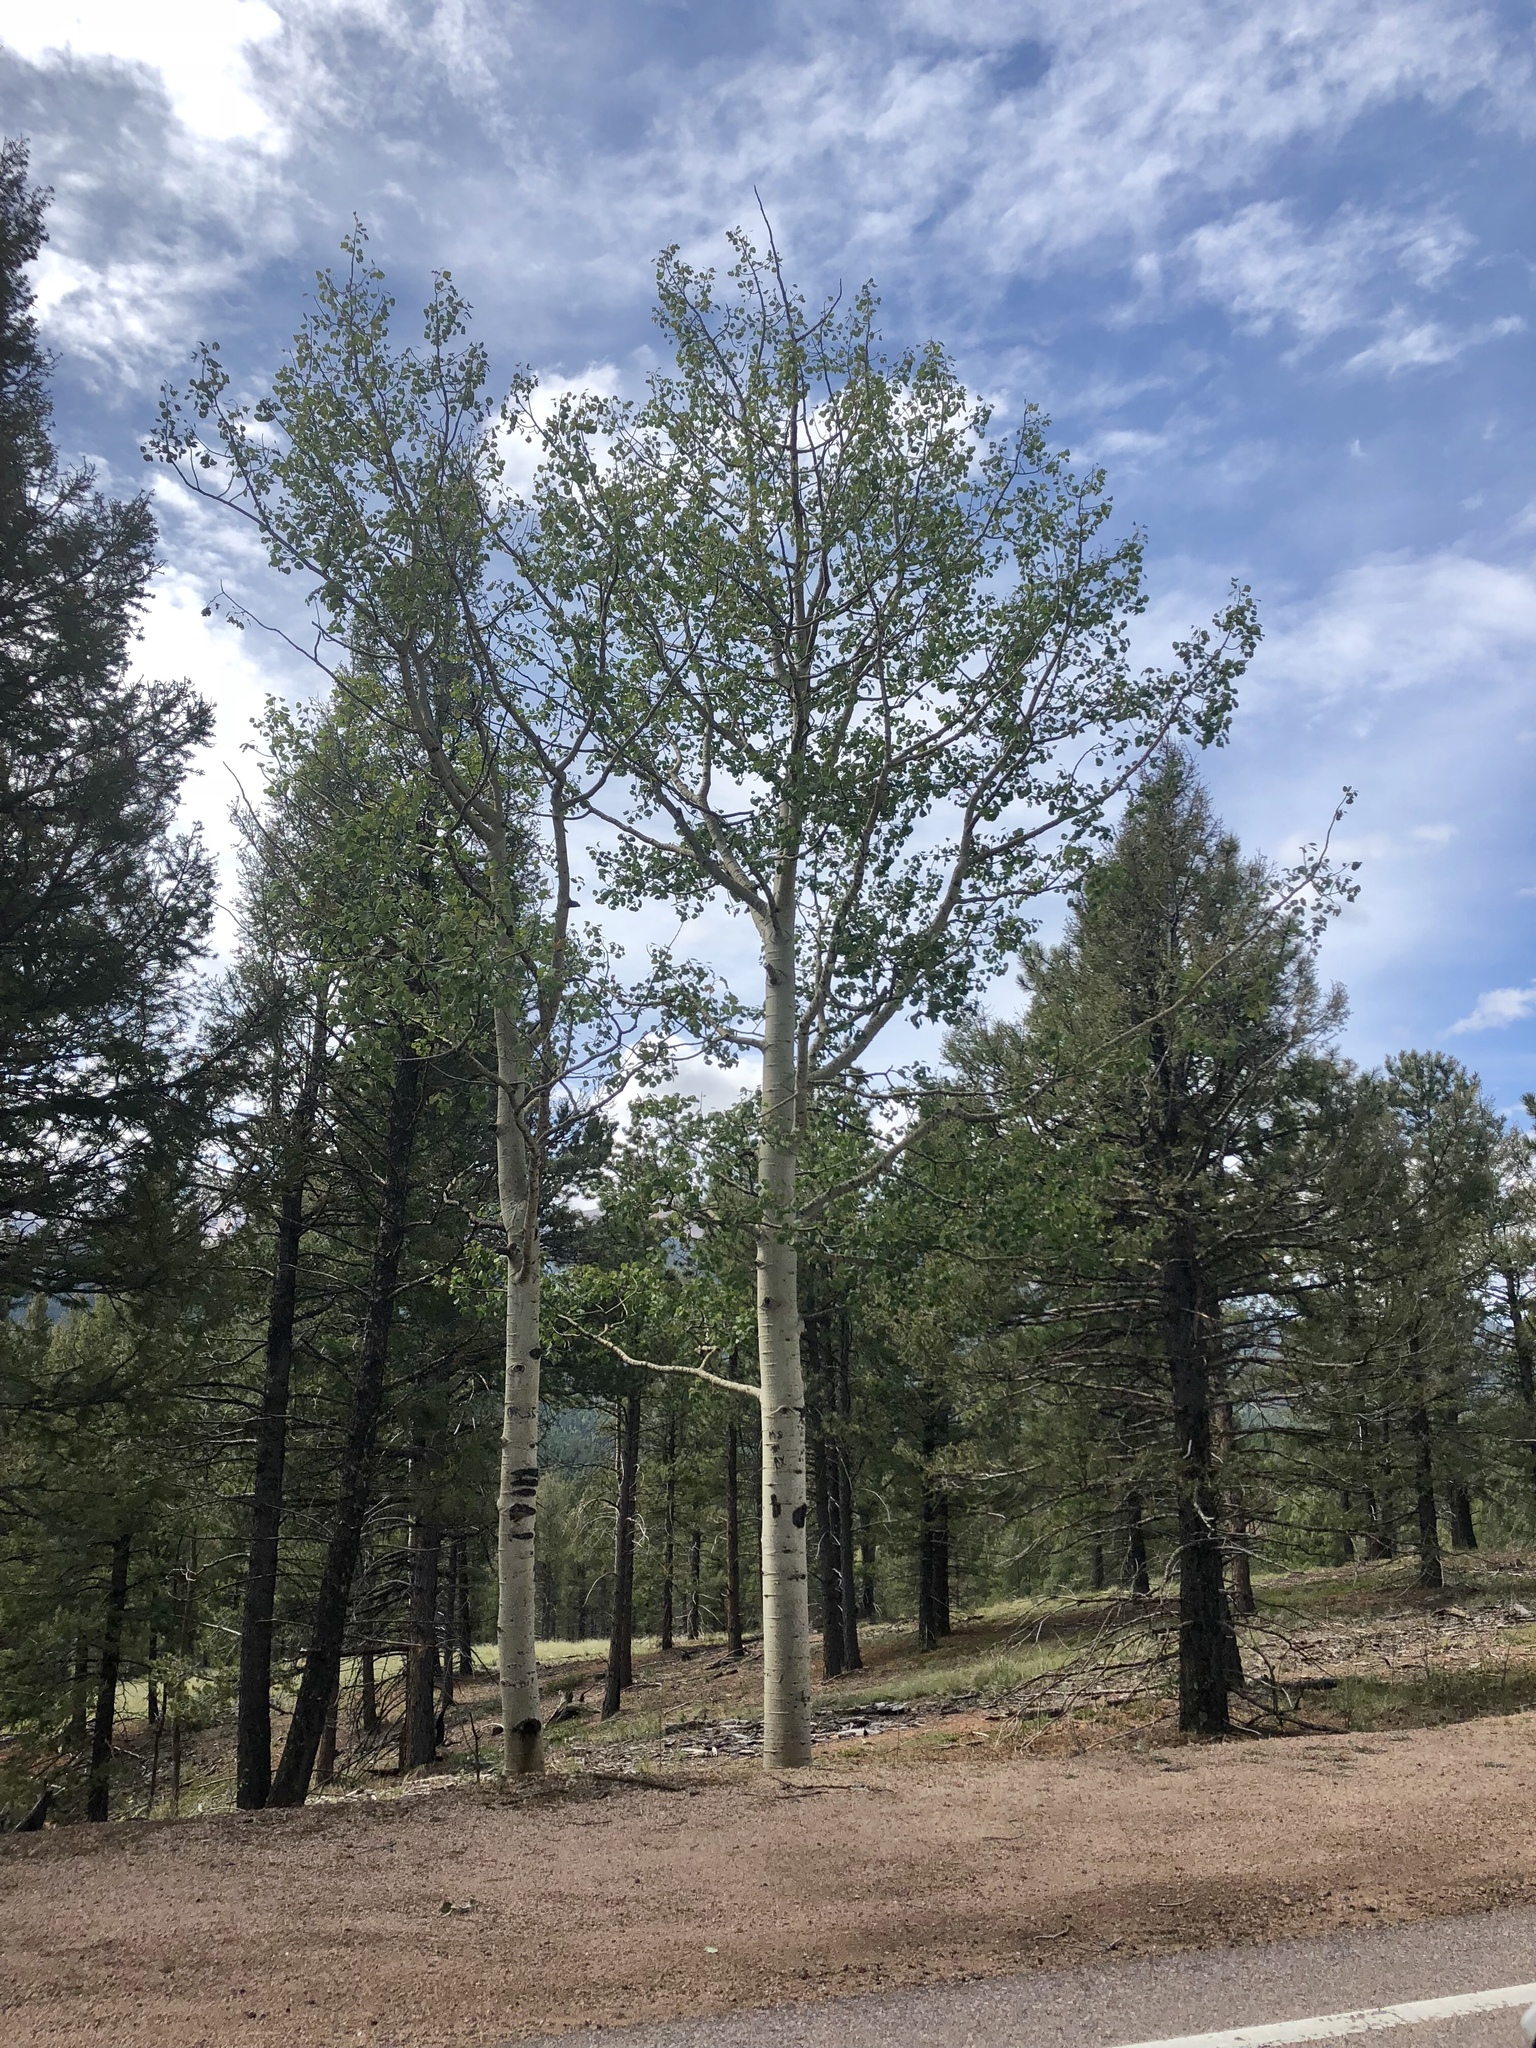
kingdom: Plantae
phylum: Tracheophyta
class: Magnoliopsida
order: Malpighiales
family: Salicaceae
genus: Populus
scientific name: Populus tremuloides
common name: Quaking aspen
